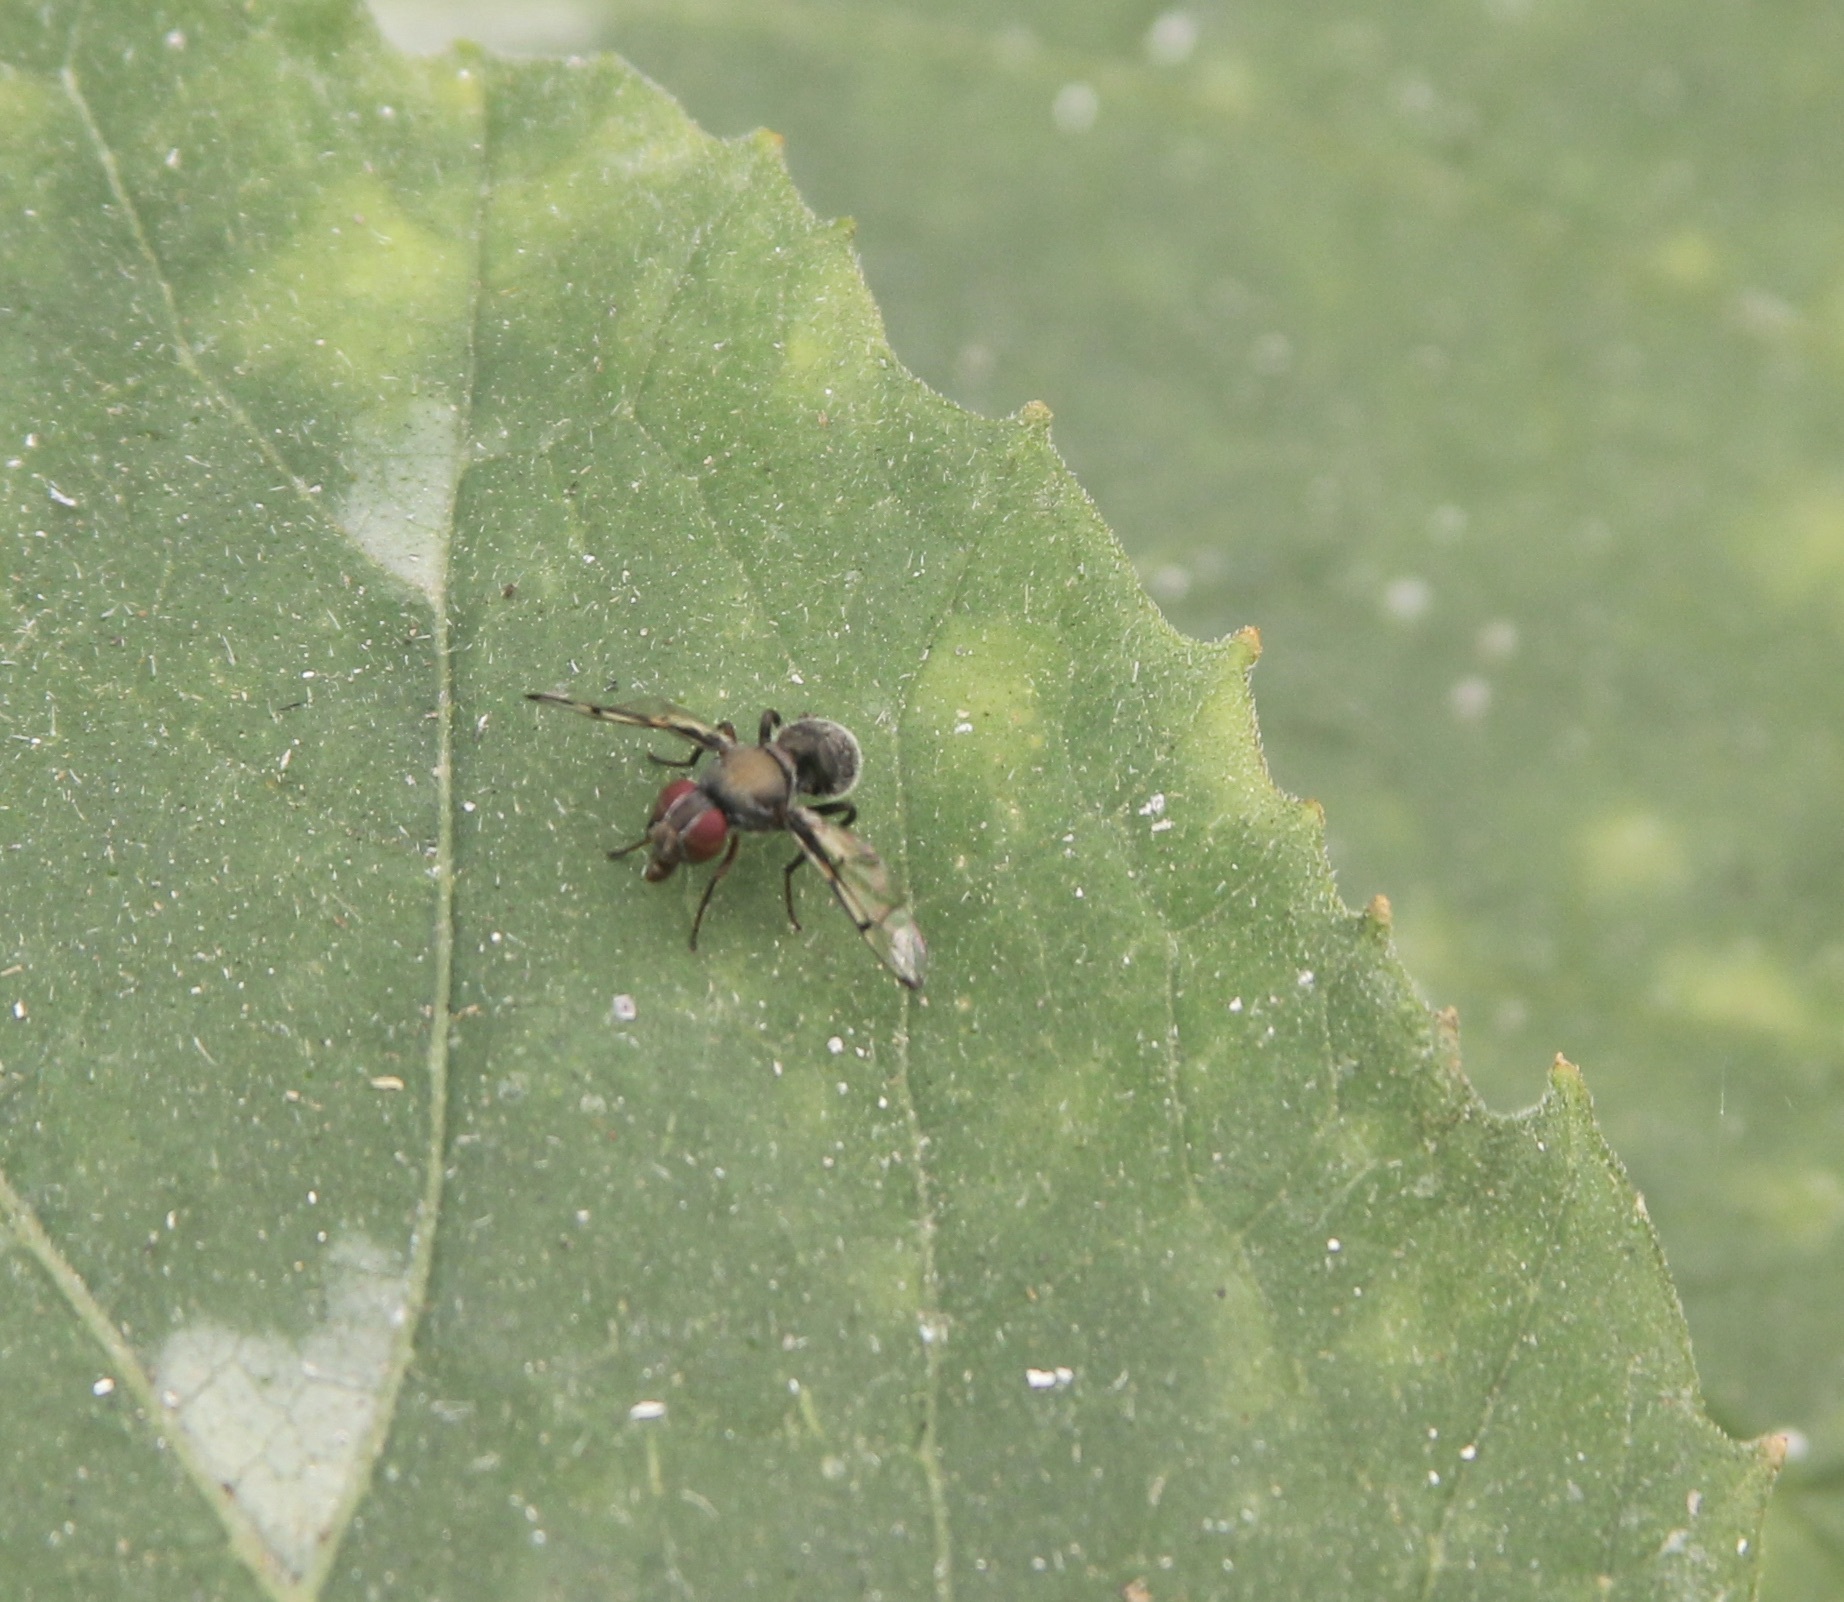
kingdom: Animalia
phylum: Arthropoda
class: Insecta
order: Diptera
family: Platystomatidae
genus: Pogonortalis
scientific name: Pogonortalis doclea
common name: Boatman fly
